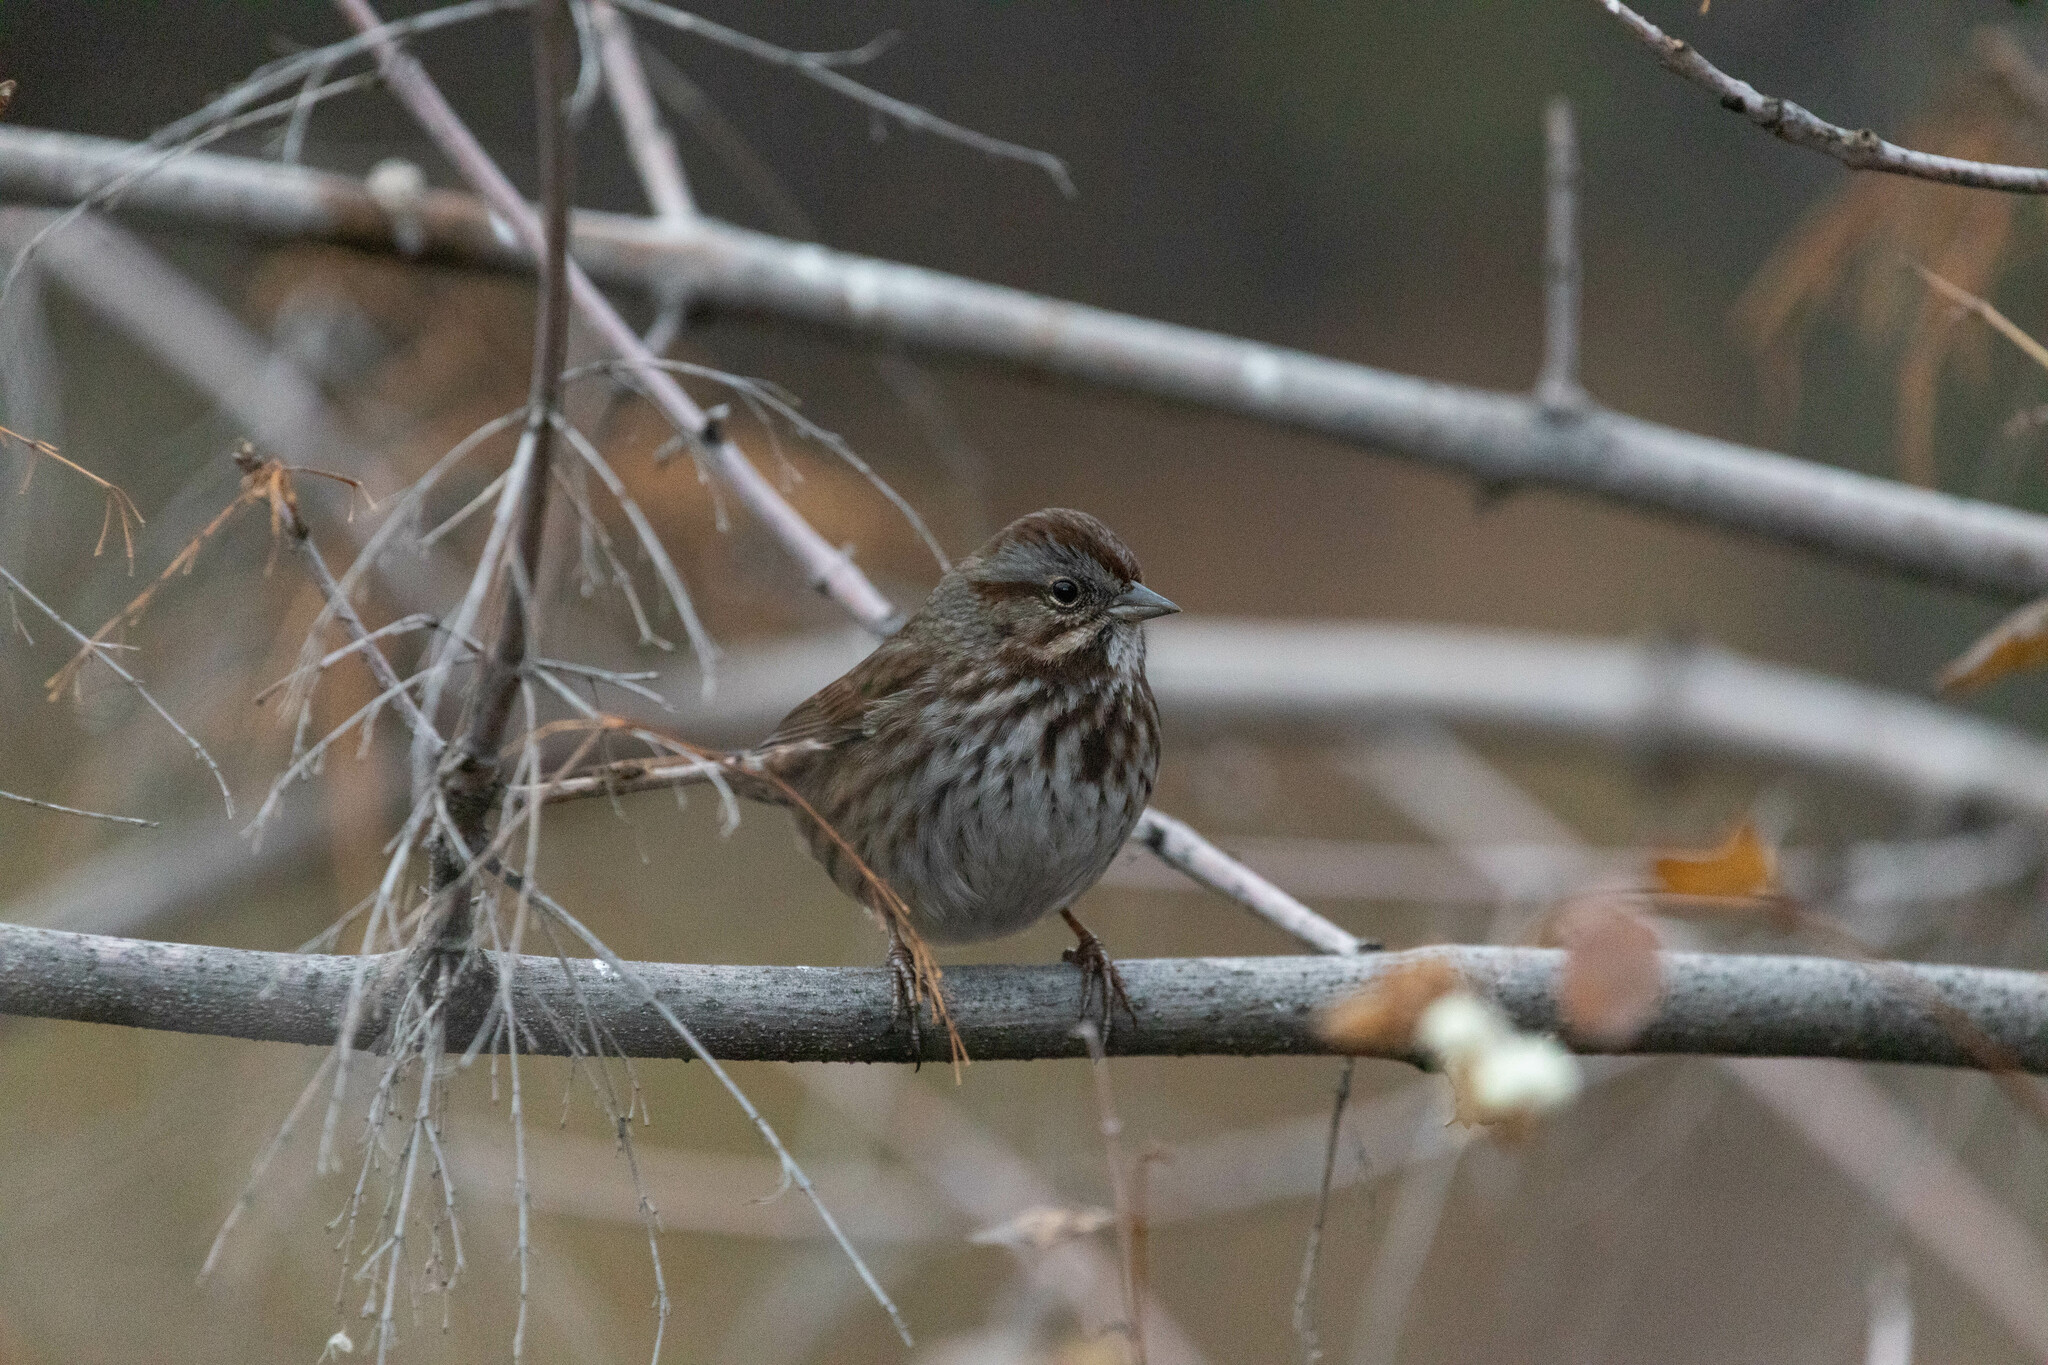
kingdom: Animalia
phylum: Chordata
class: Aves
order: Passeriformes
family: Passerellidae
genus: Melospiza
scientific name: Melospiza melodia
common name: Song sparrow
